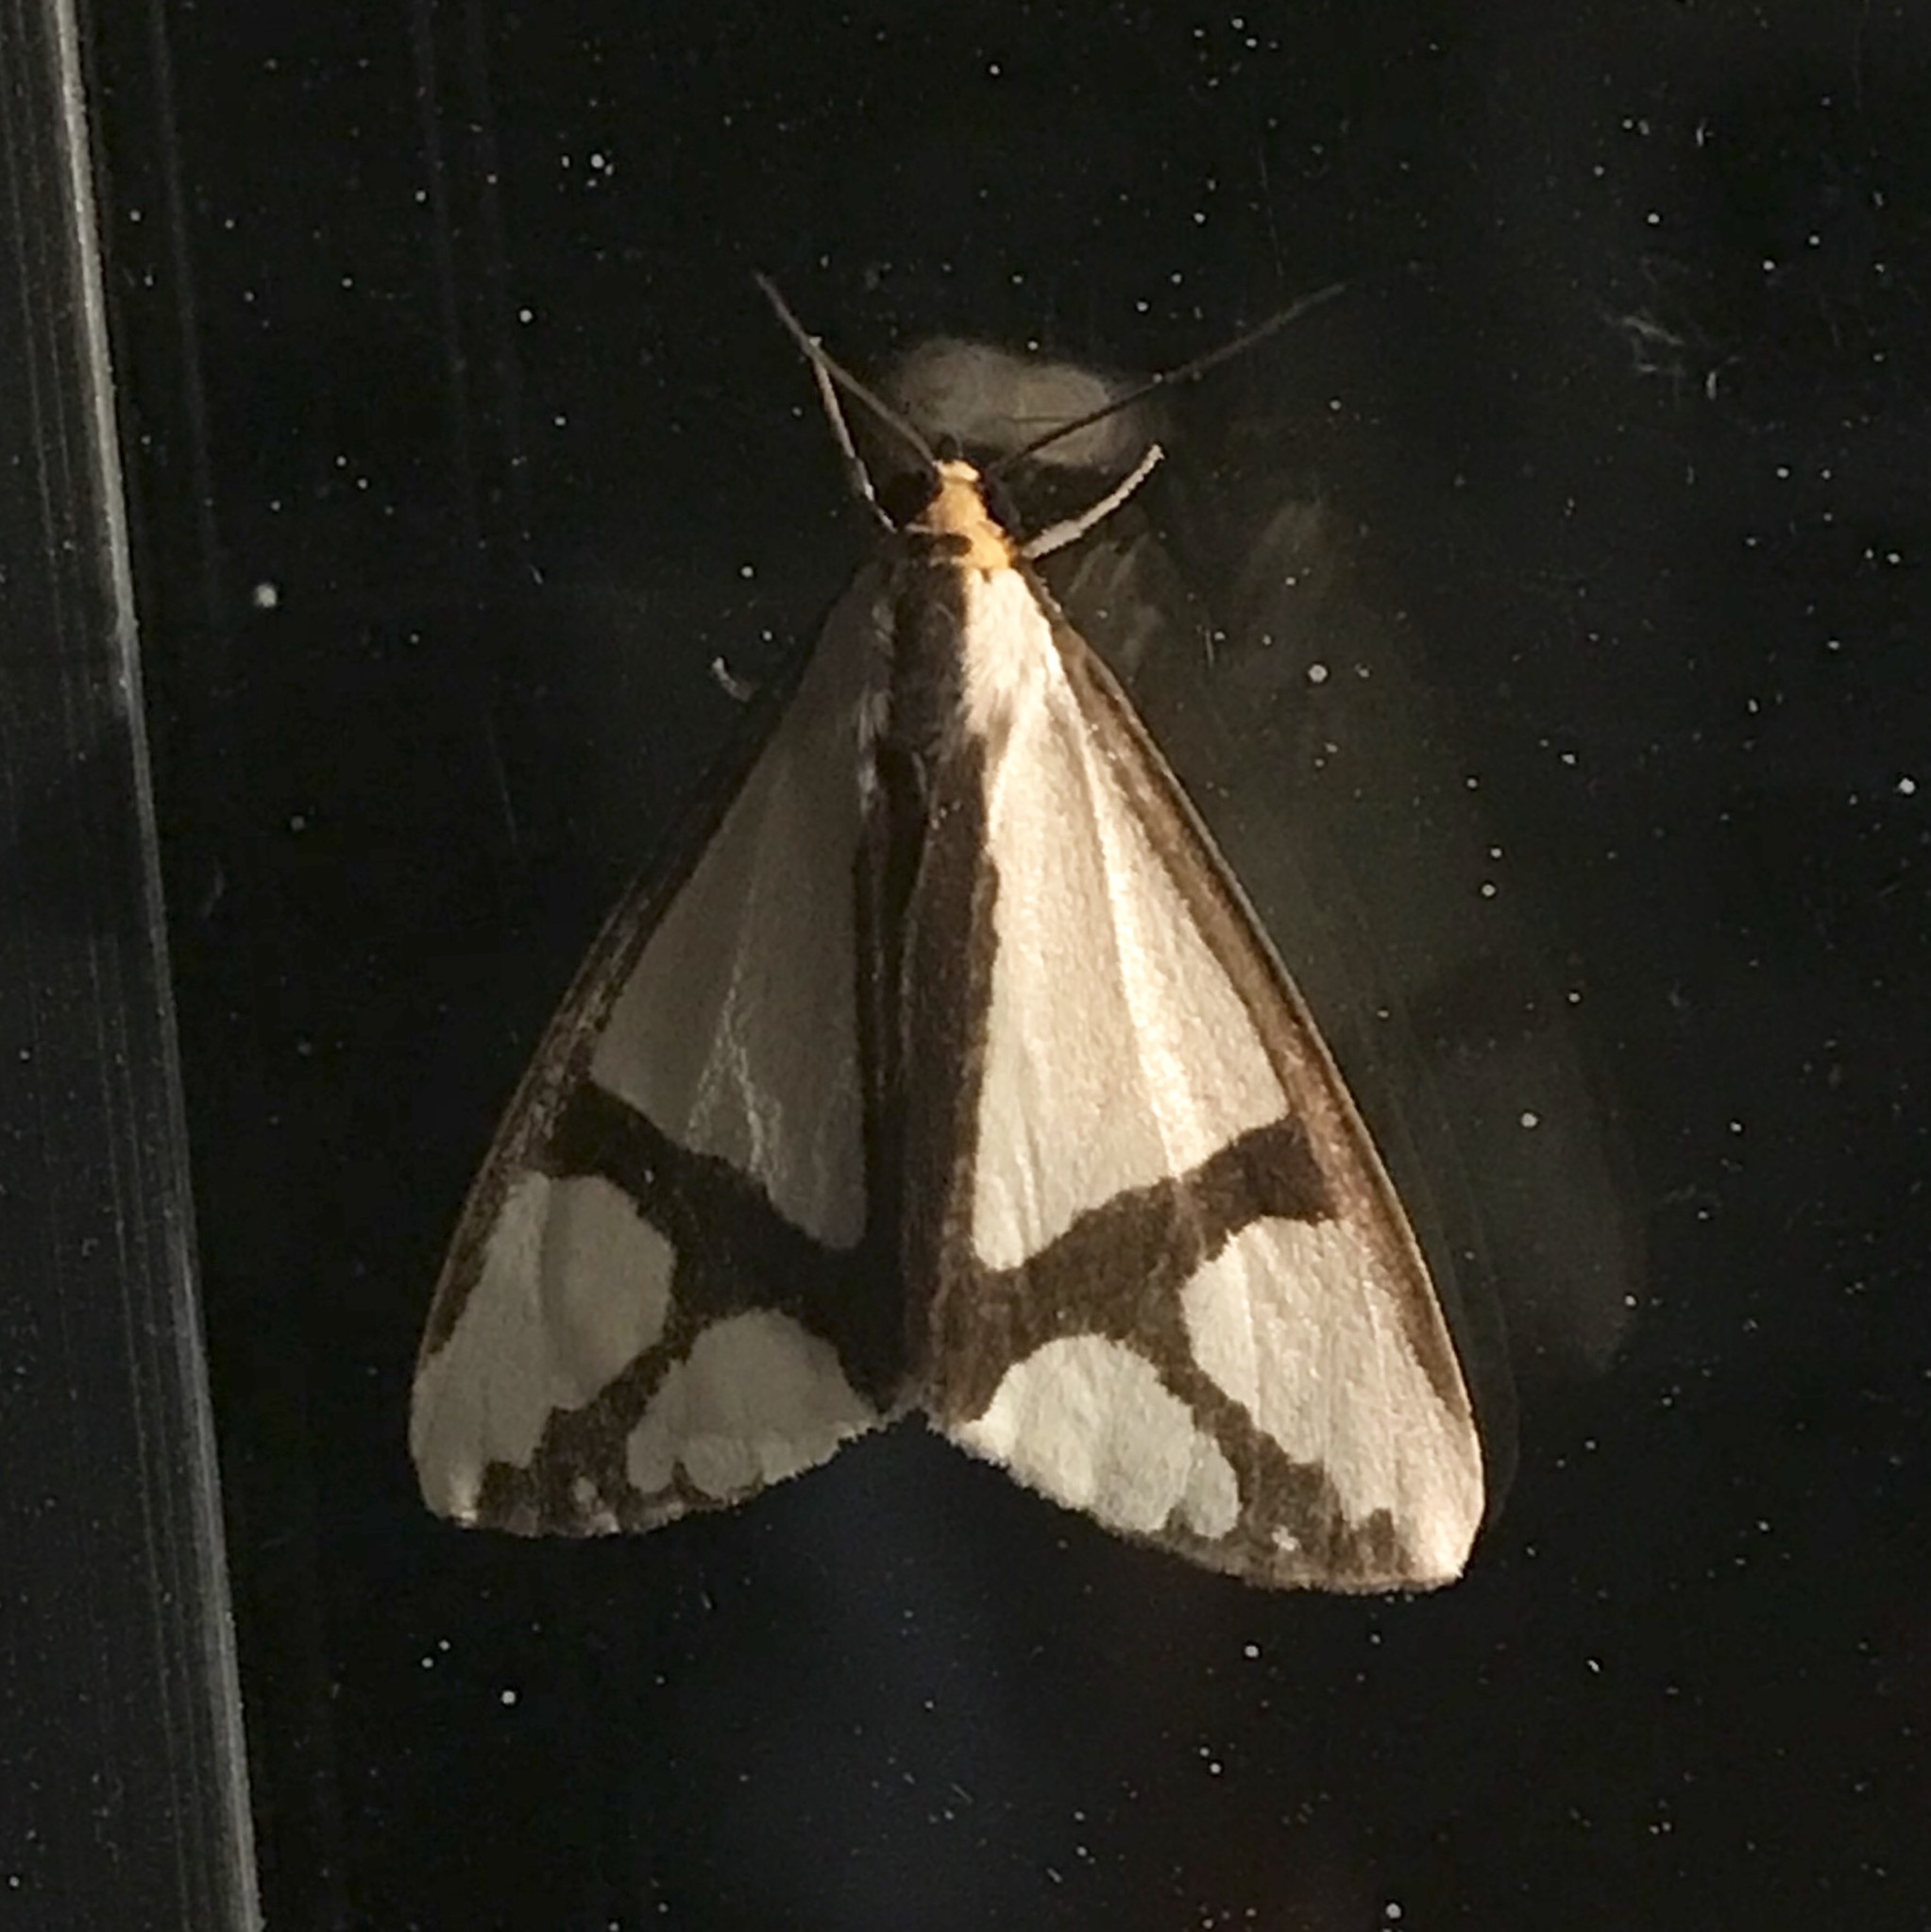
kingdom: Animalia
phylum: Arthropoda
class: Insecta
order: Lepidoptera
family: Erebidae
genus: Haploa
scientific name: Haploa contigua
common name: Neighbor moth
